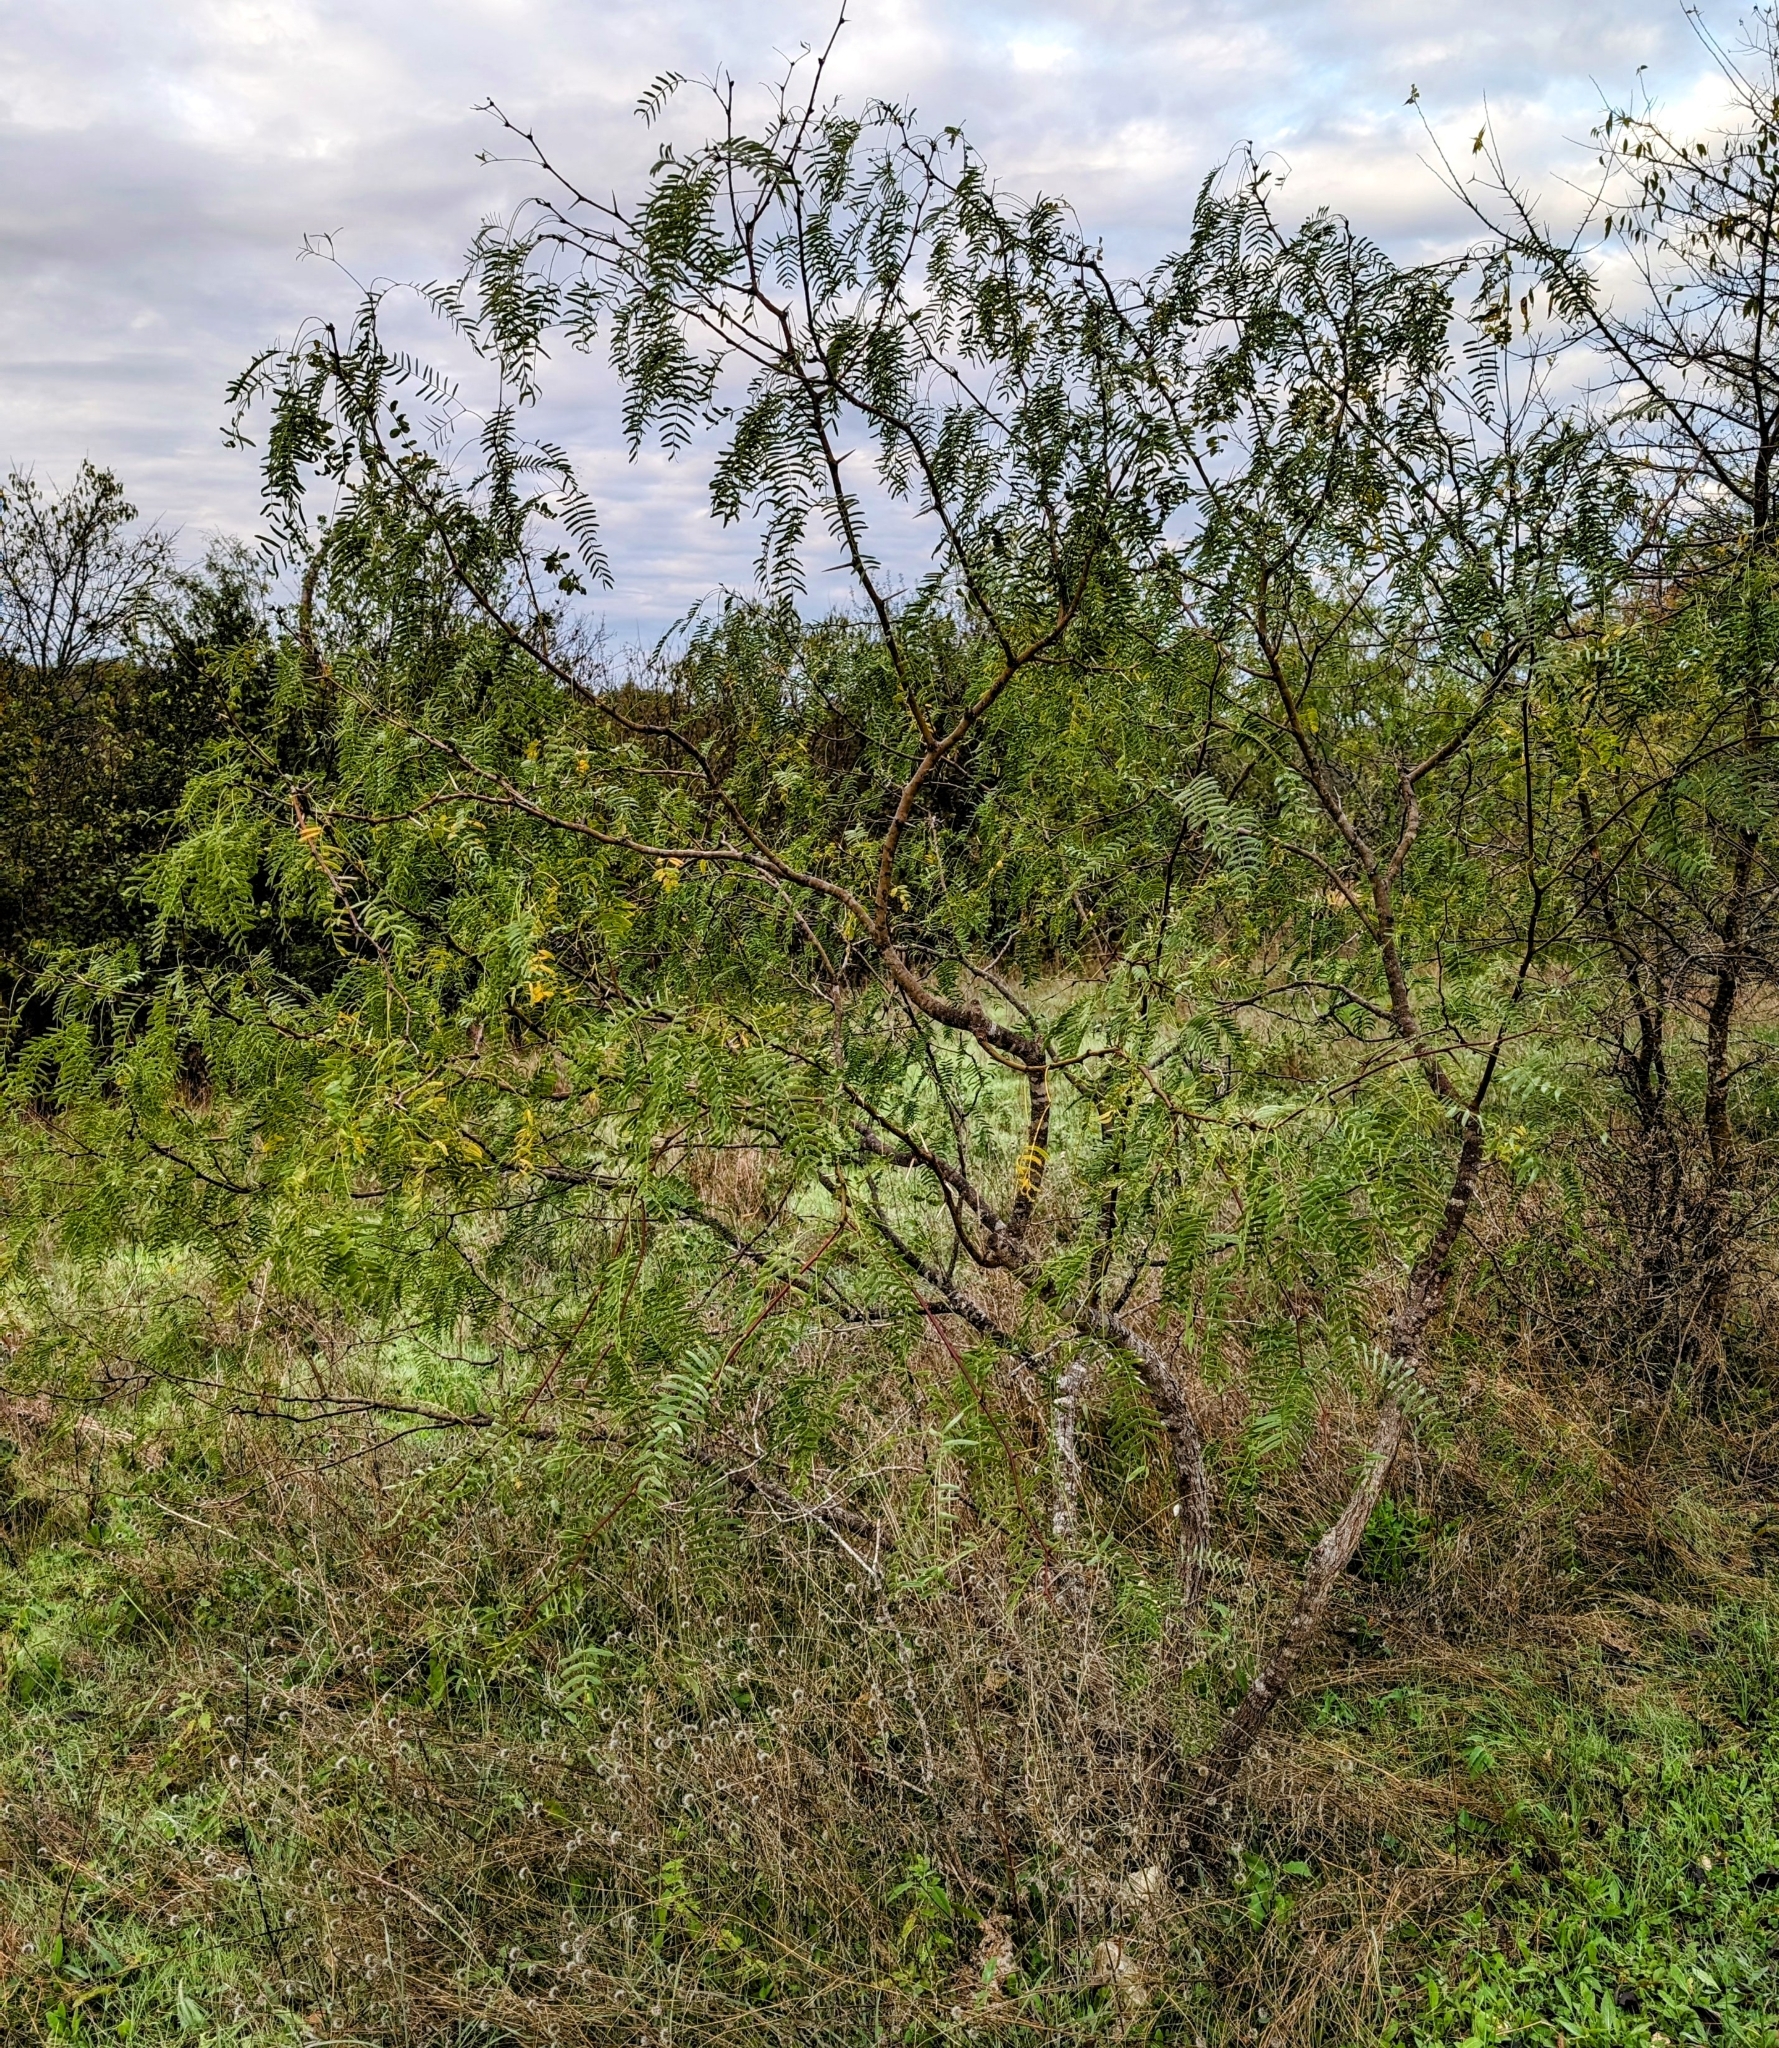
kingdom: Plantae
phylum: Tracheophyta
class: Magnoliopsida
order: Fabales
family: Fabaceae
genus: Prosopis
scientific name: Prosopis glandulosa
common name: Honey mesquite
